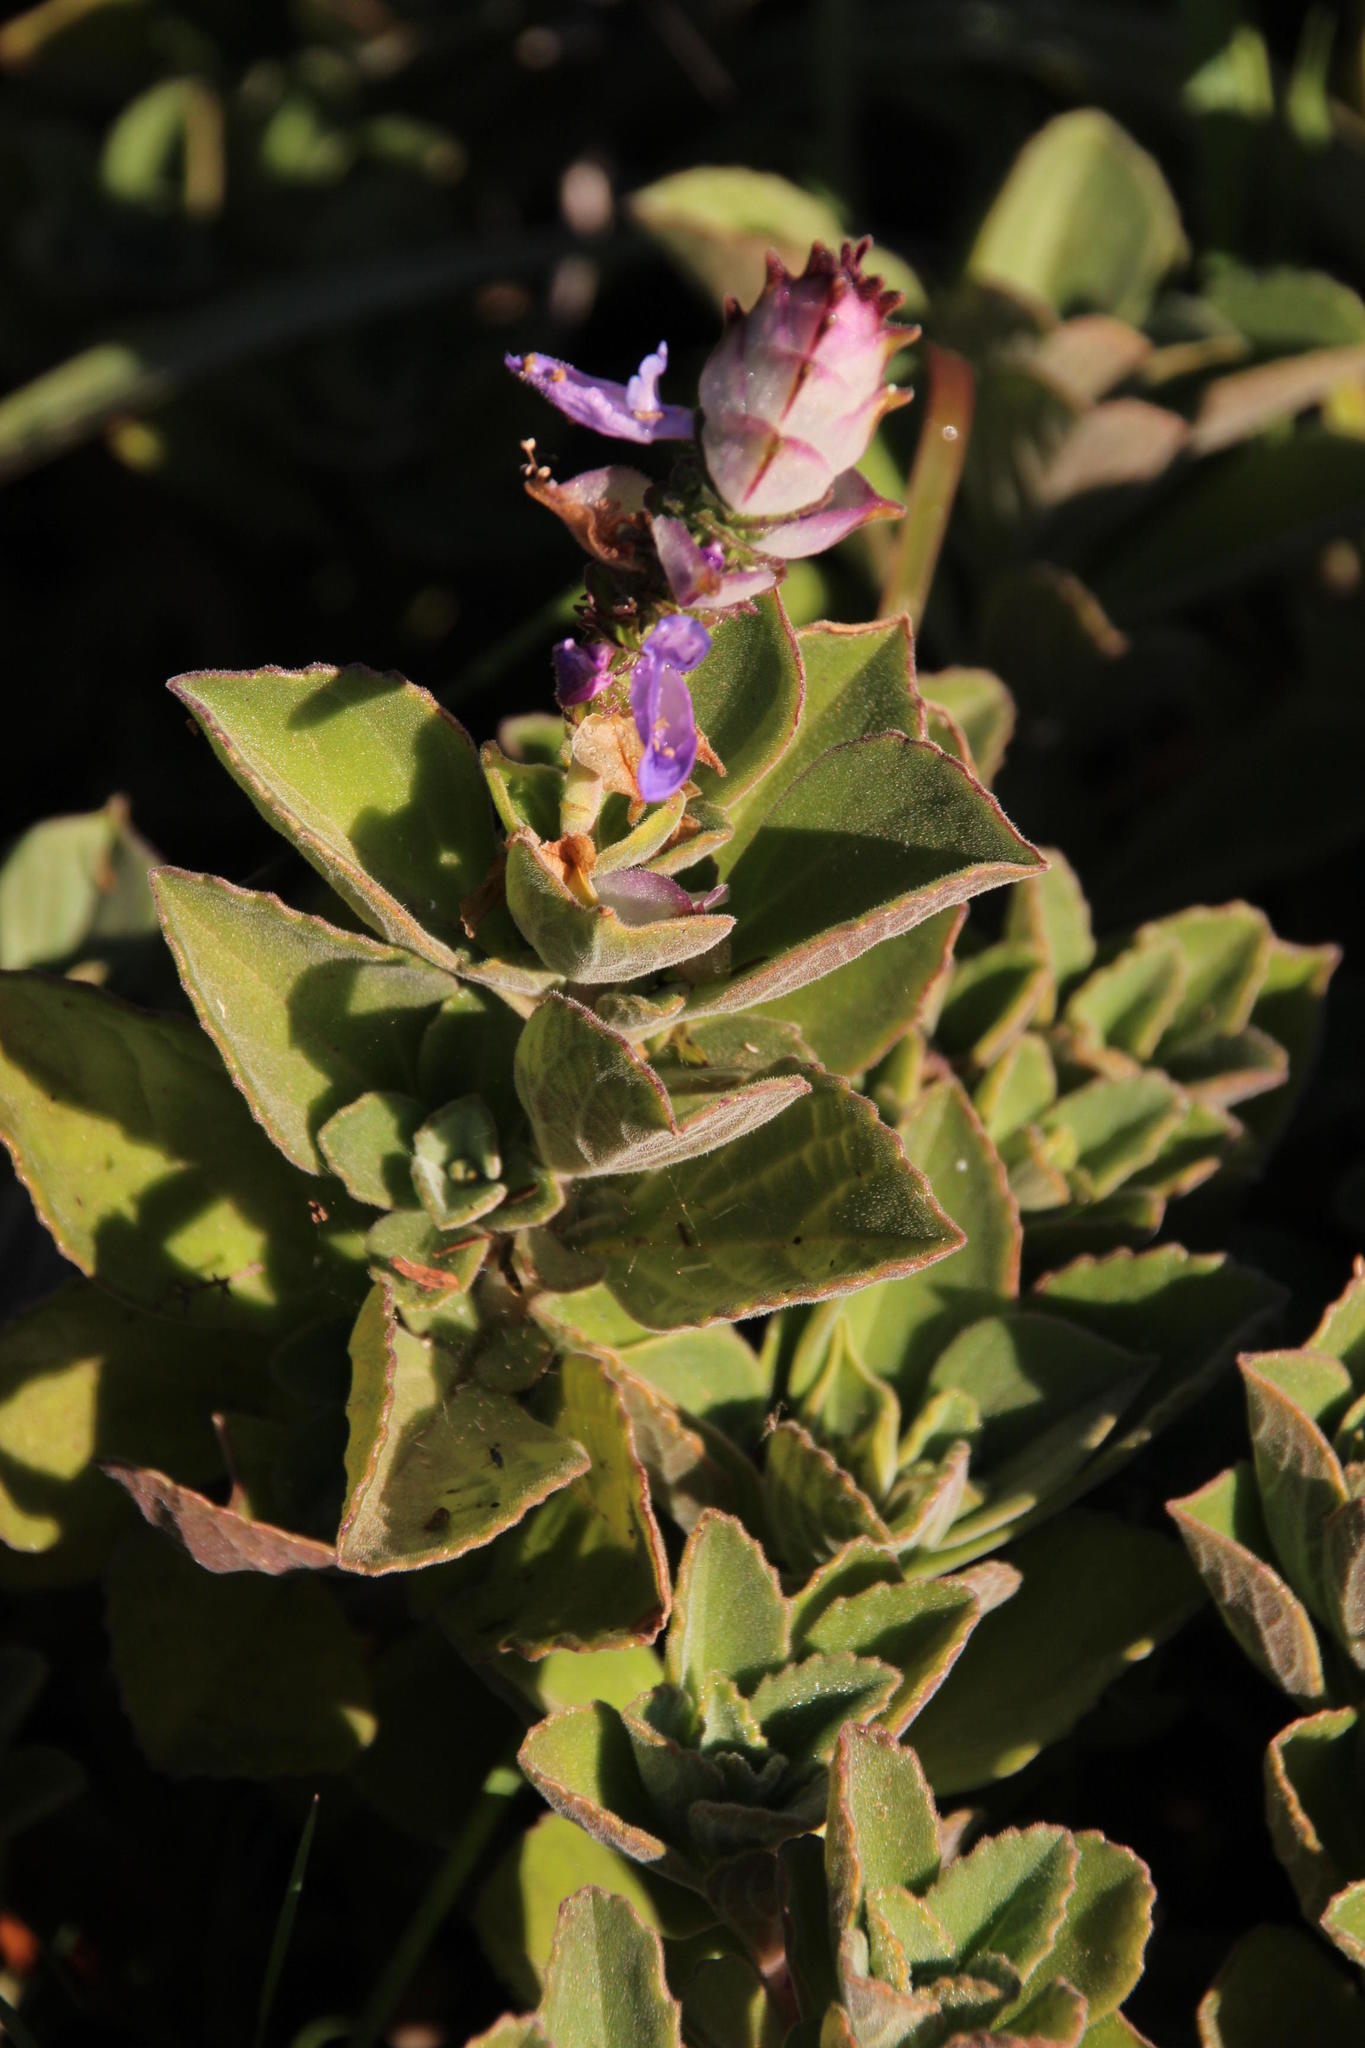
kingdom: Plantae
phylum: Tracheophyta
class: Magnoliopsida
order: Lamiales
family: Lamiaceae
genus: Coleus
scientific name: Coleus neochilus
